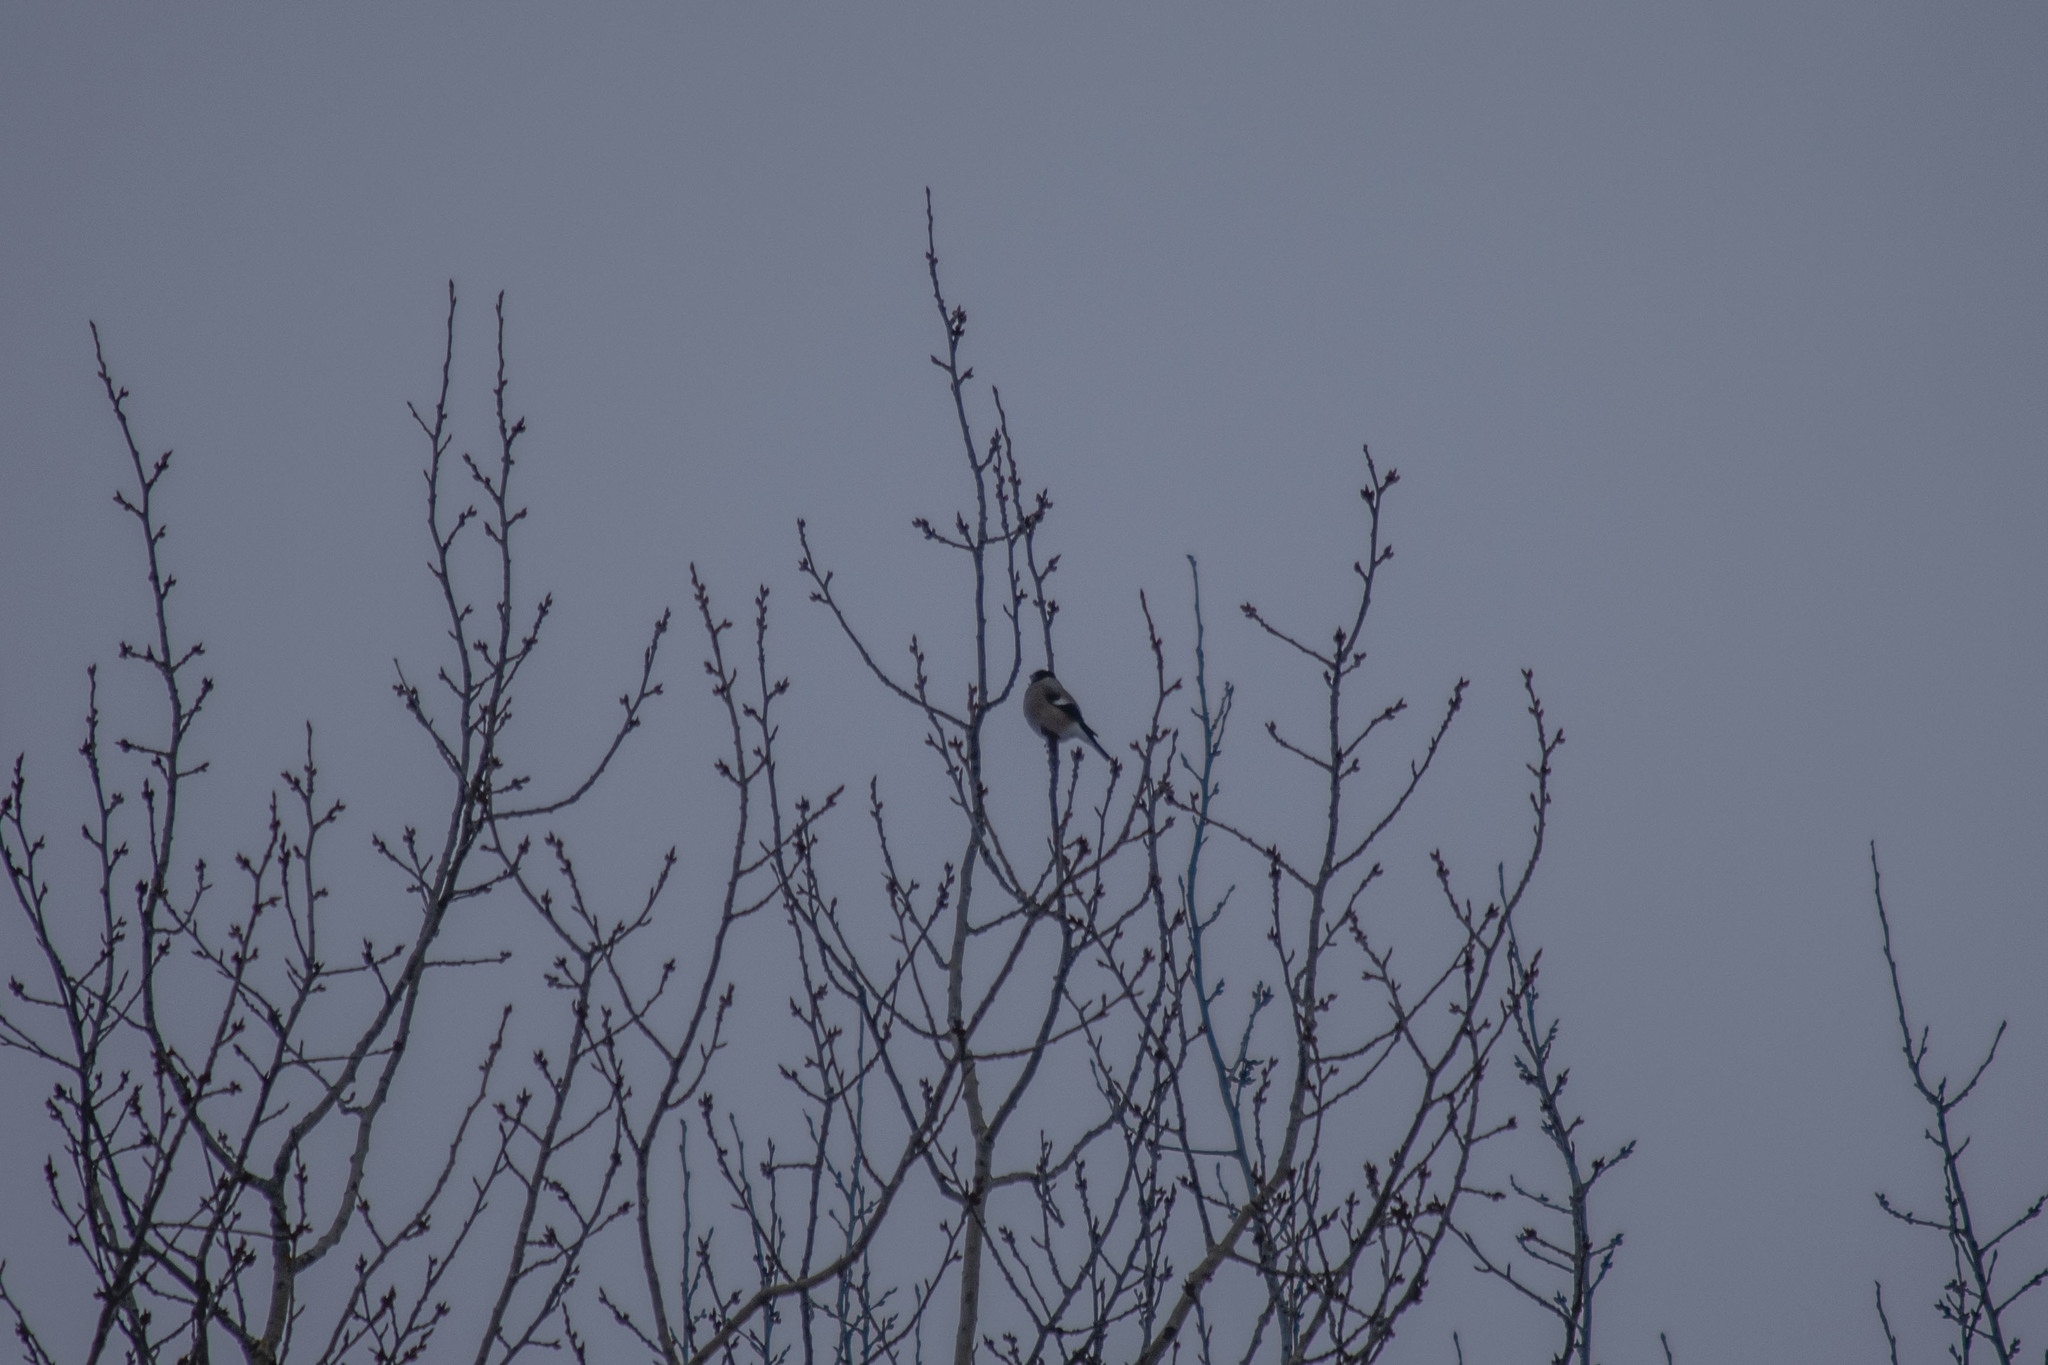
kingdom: Animalia
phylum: Chordata
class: Aves
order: Passeriformes
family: Fringillidae
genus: Pyrrhula
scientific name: Pyrrhula pyrrhula
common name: Eurasian bullfinch
